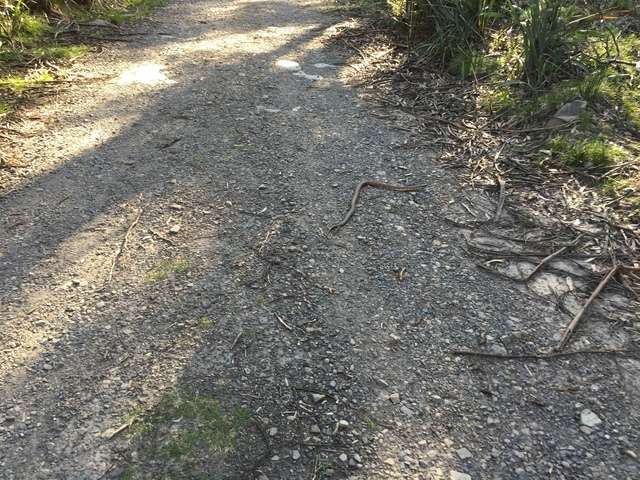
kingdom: Animalia
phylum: Chordata
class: Squamata
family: Elapidae
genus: Notechis
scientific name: Notechis scutatus
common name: Mainland tiger snake
